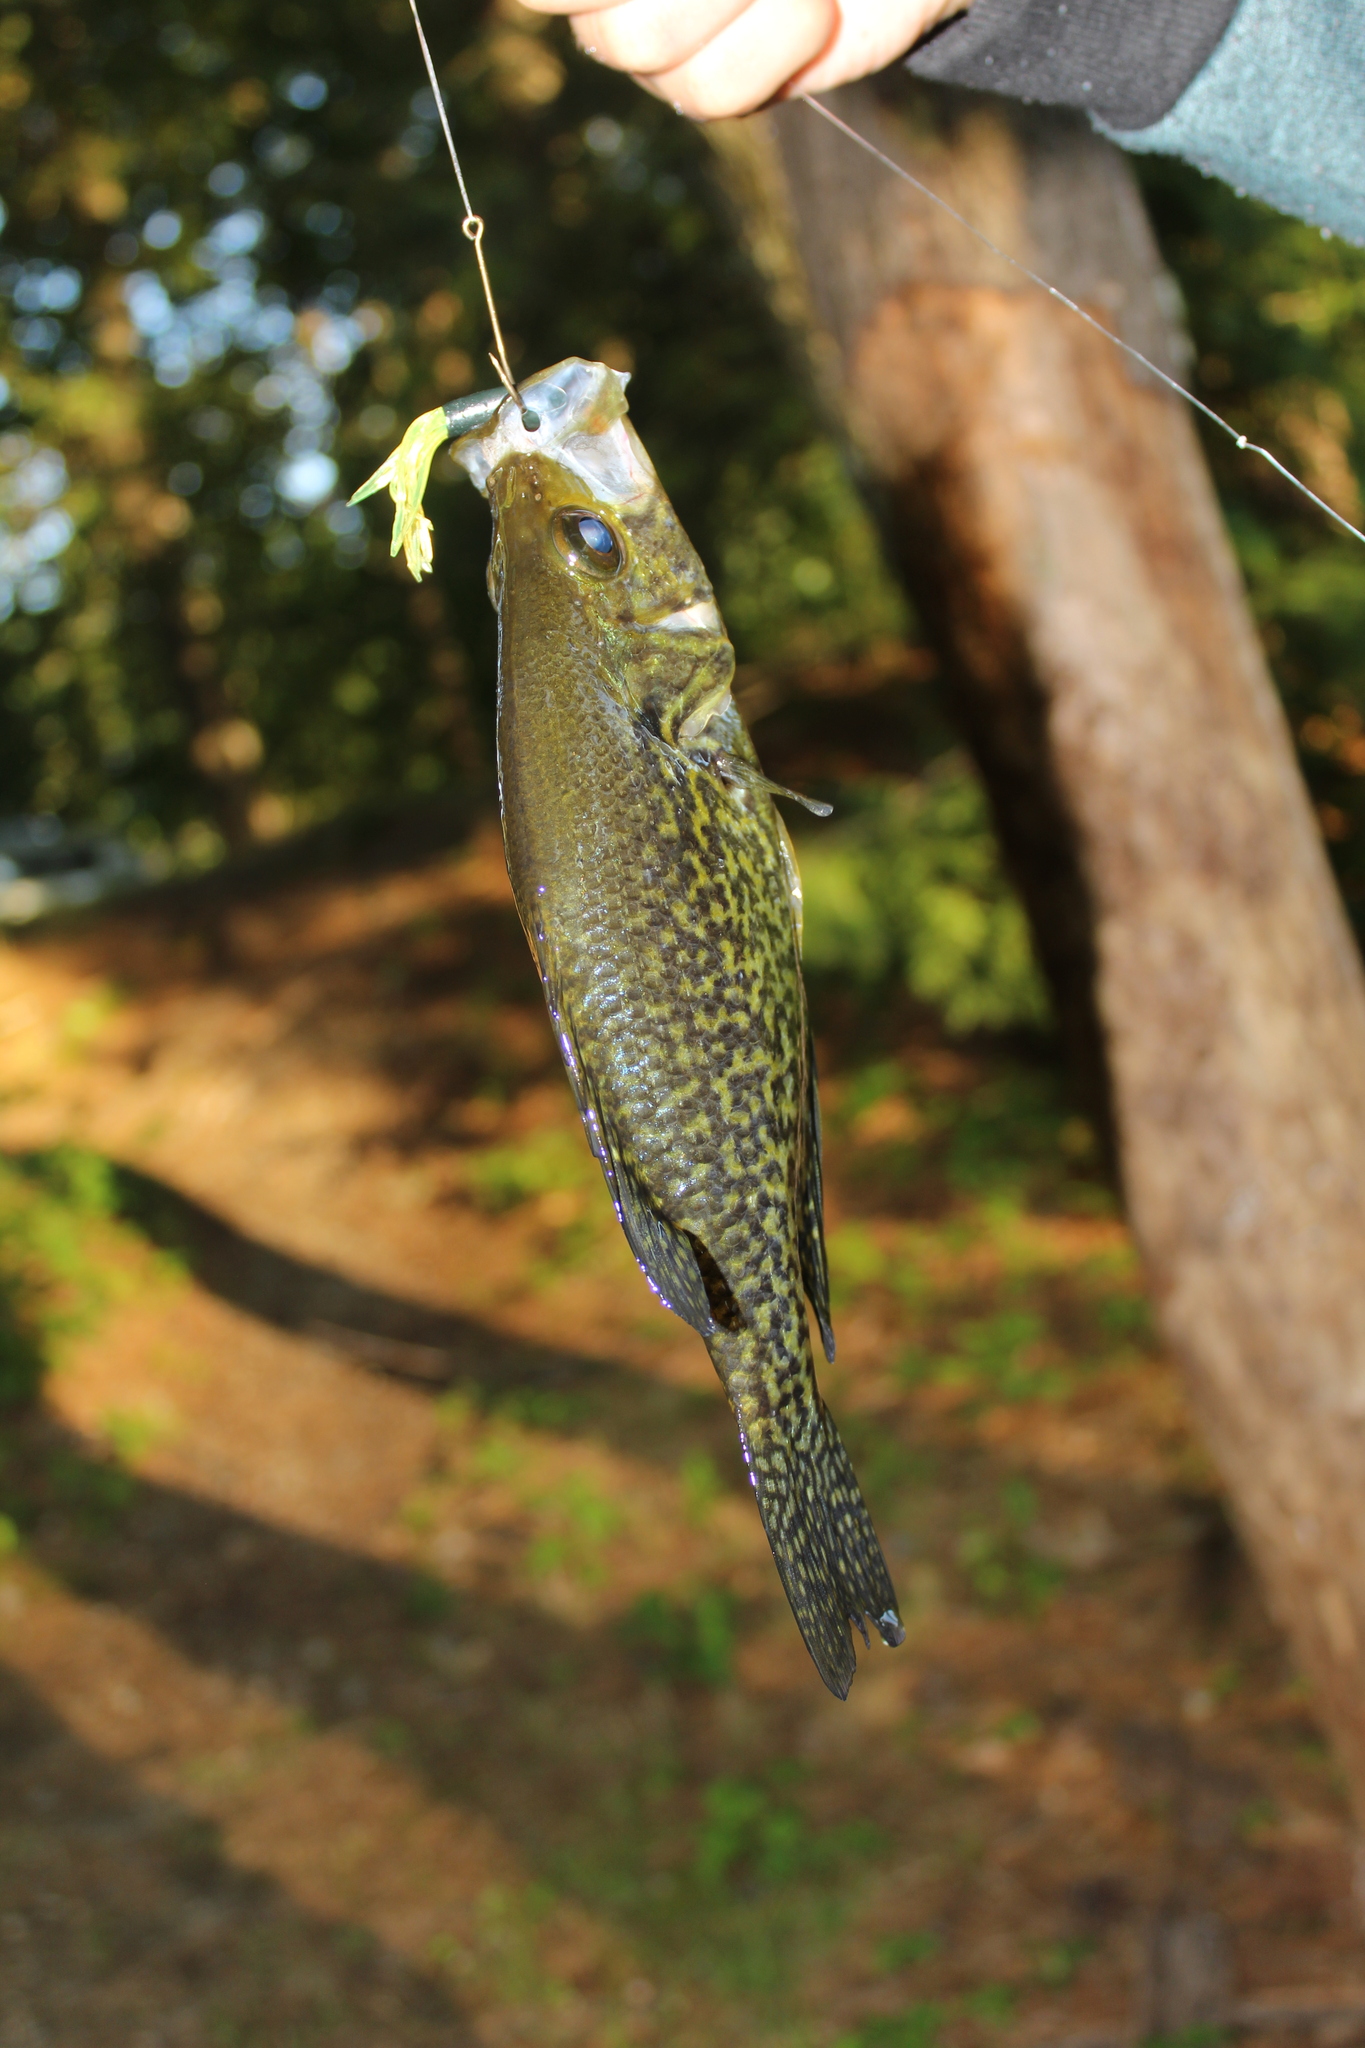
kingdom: Animalia
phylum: Chordata
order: Perciformes
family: Centrarchidae
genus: Pomoxis
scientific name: Pomoxis nigromaculatus
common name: Black crappie
